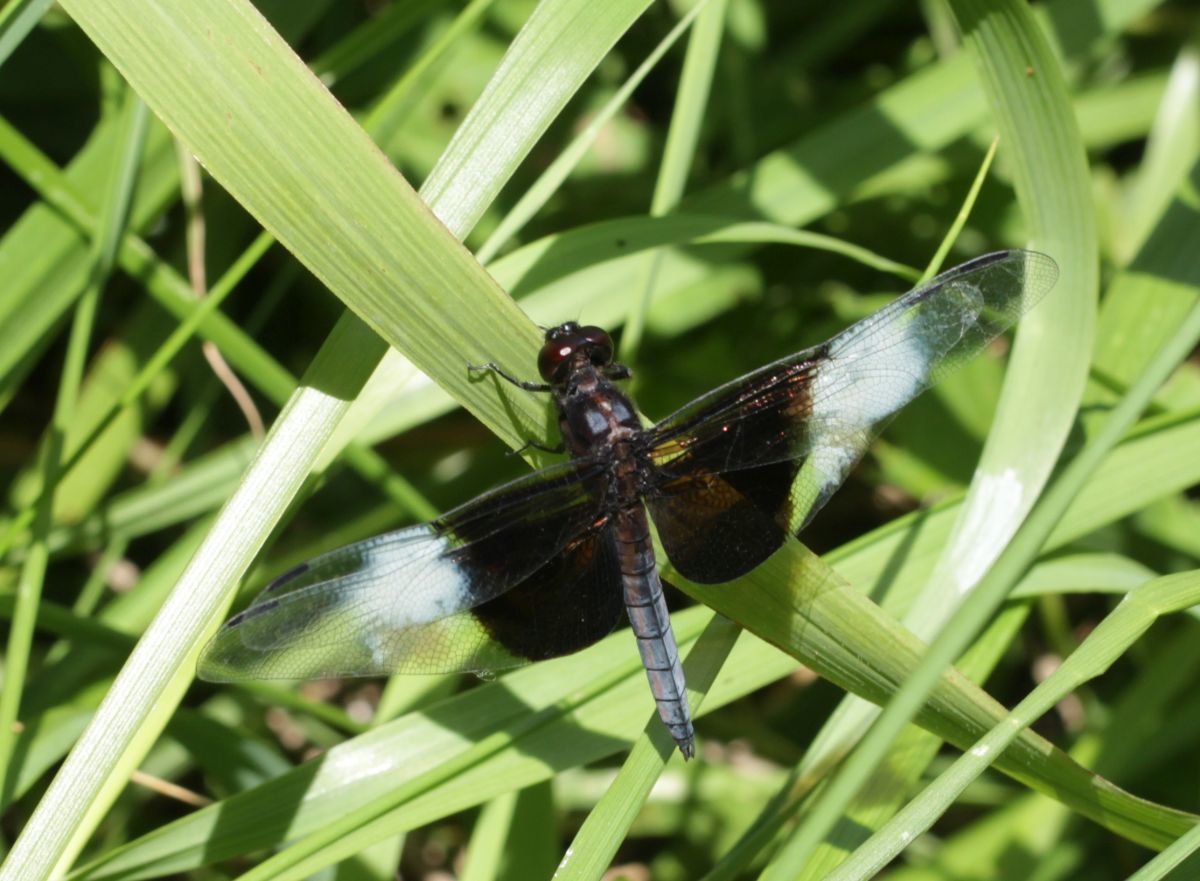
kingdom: Animalia
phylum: Arthropoda
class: Insecta
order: Odonata
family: Libellulidae
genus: Libellula
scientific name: Libellula luctuosa
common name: Widow skimmer
